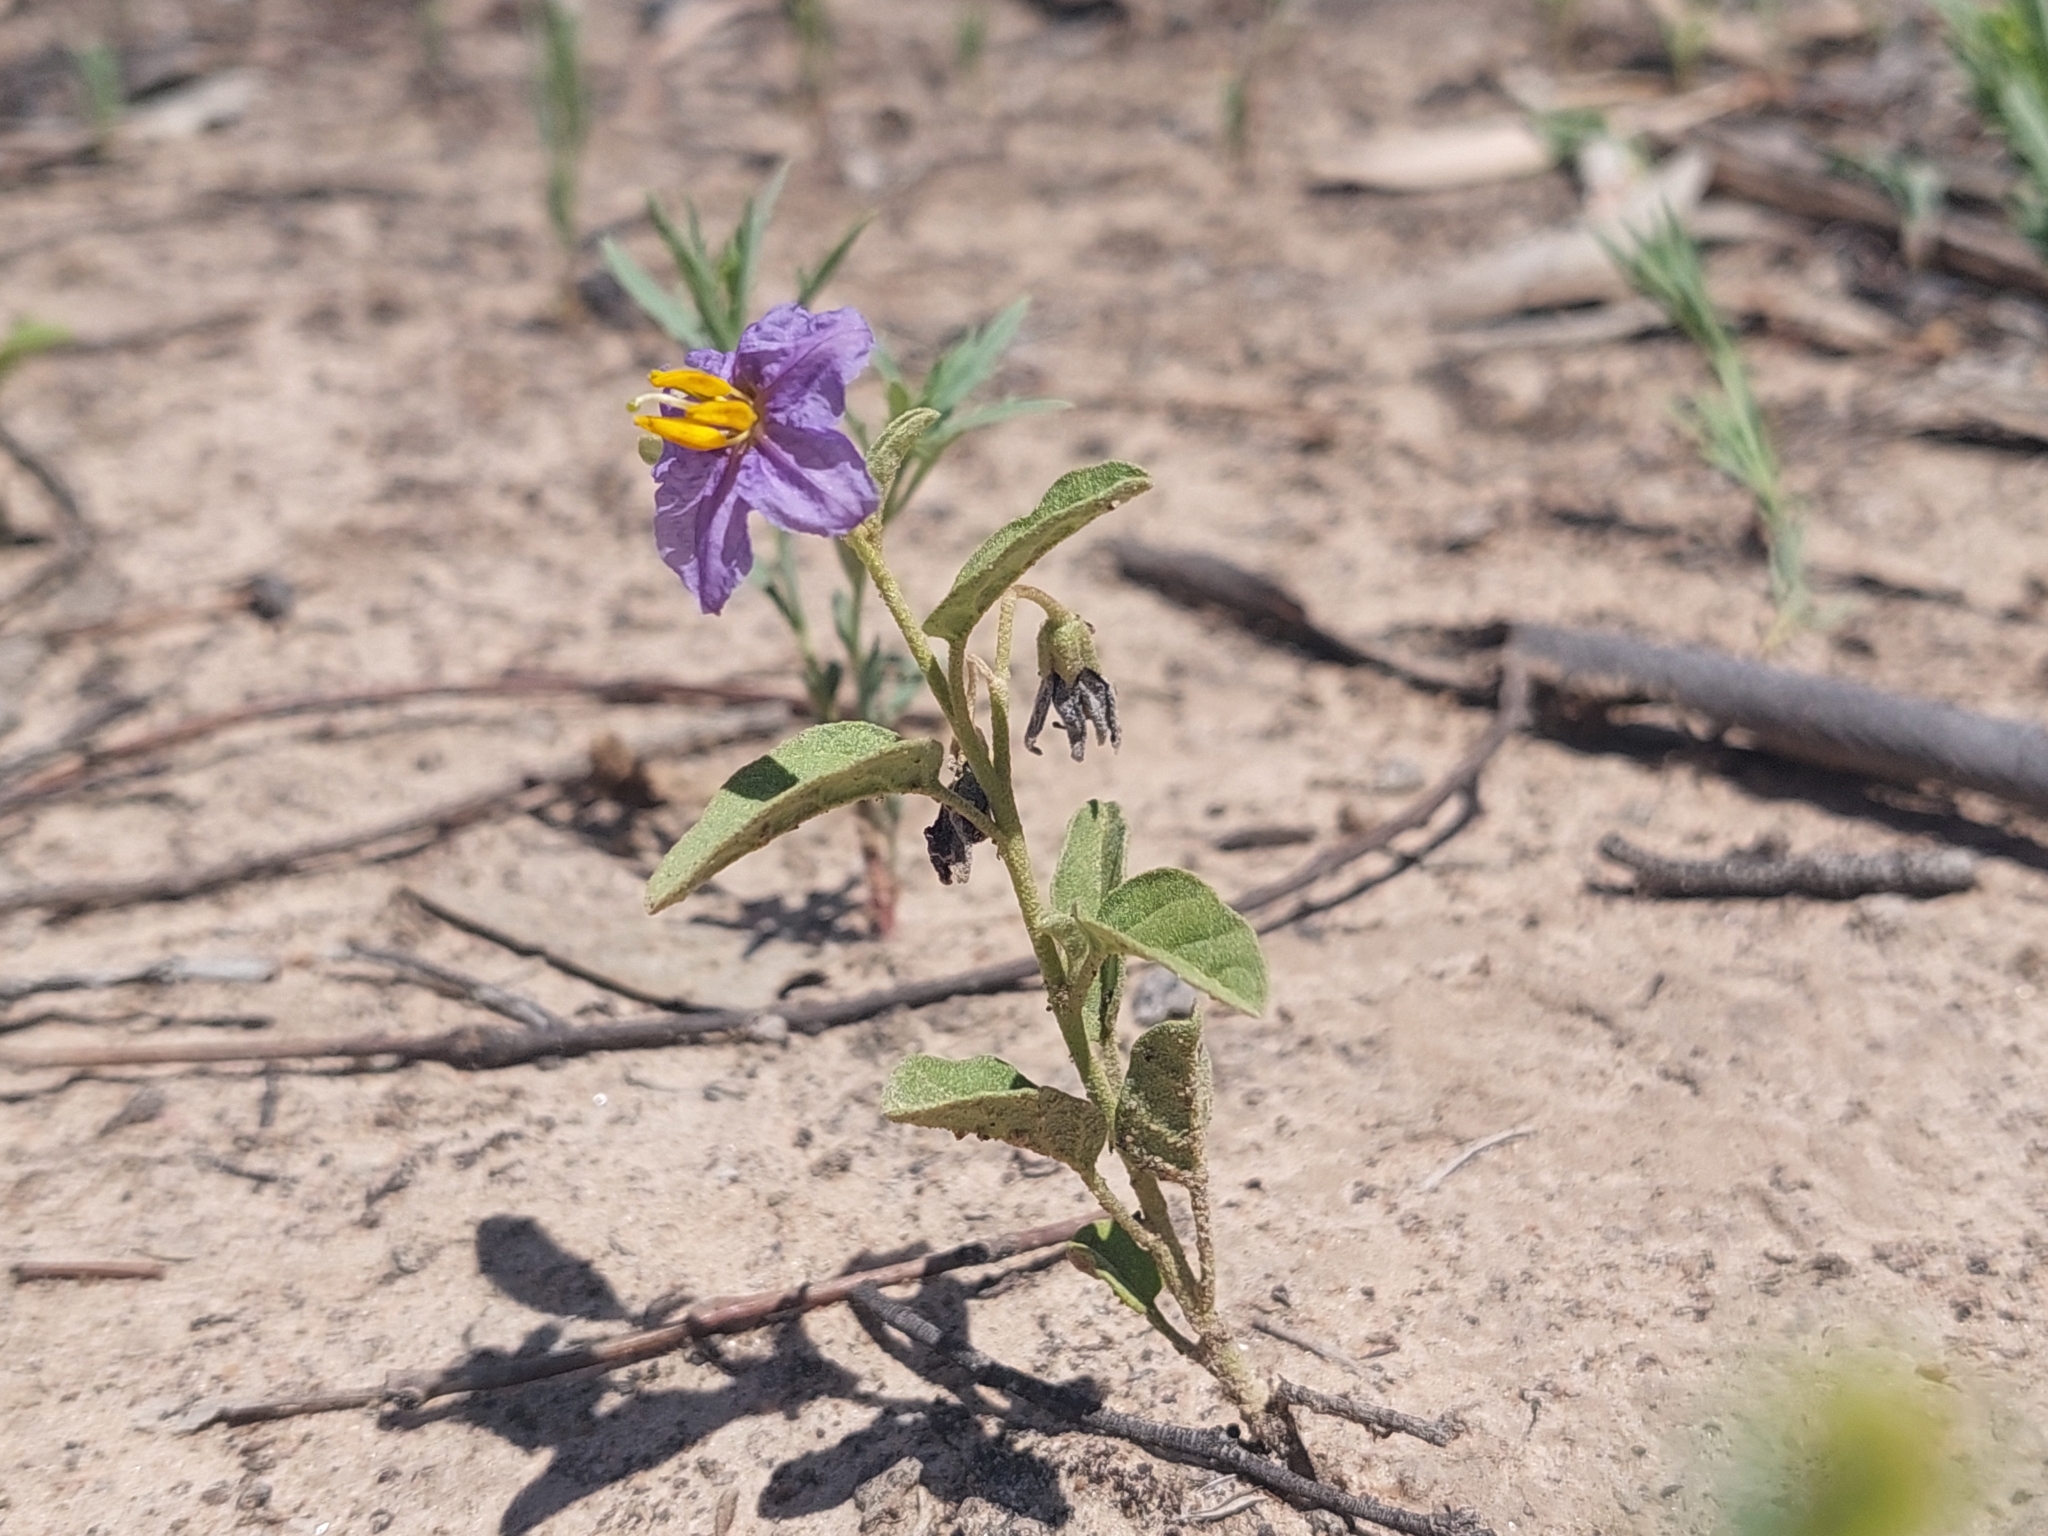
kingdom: Plantae
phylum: Tracheophyta
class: Magnoliopsida
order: Solanales
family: Solanaceae
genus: Solanum
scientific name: Solanum esuriale
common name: Wild tomato
